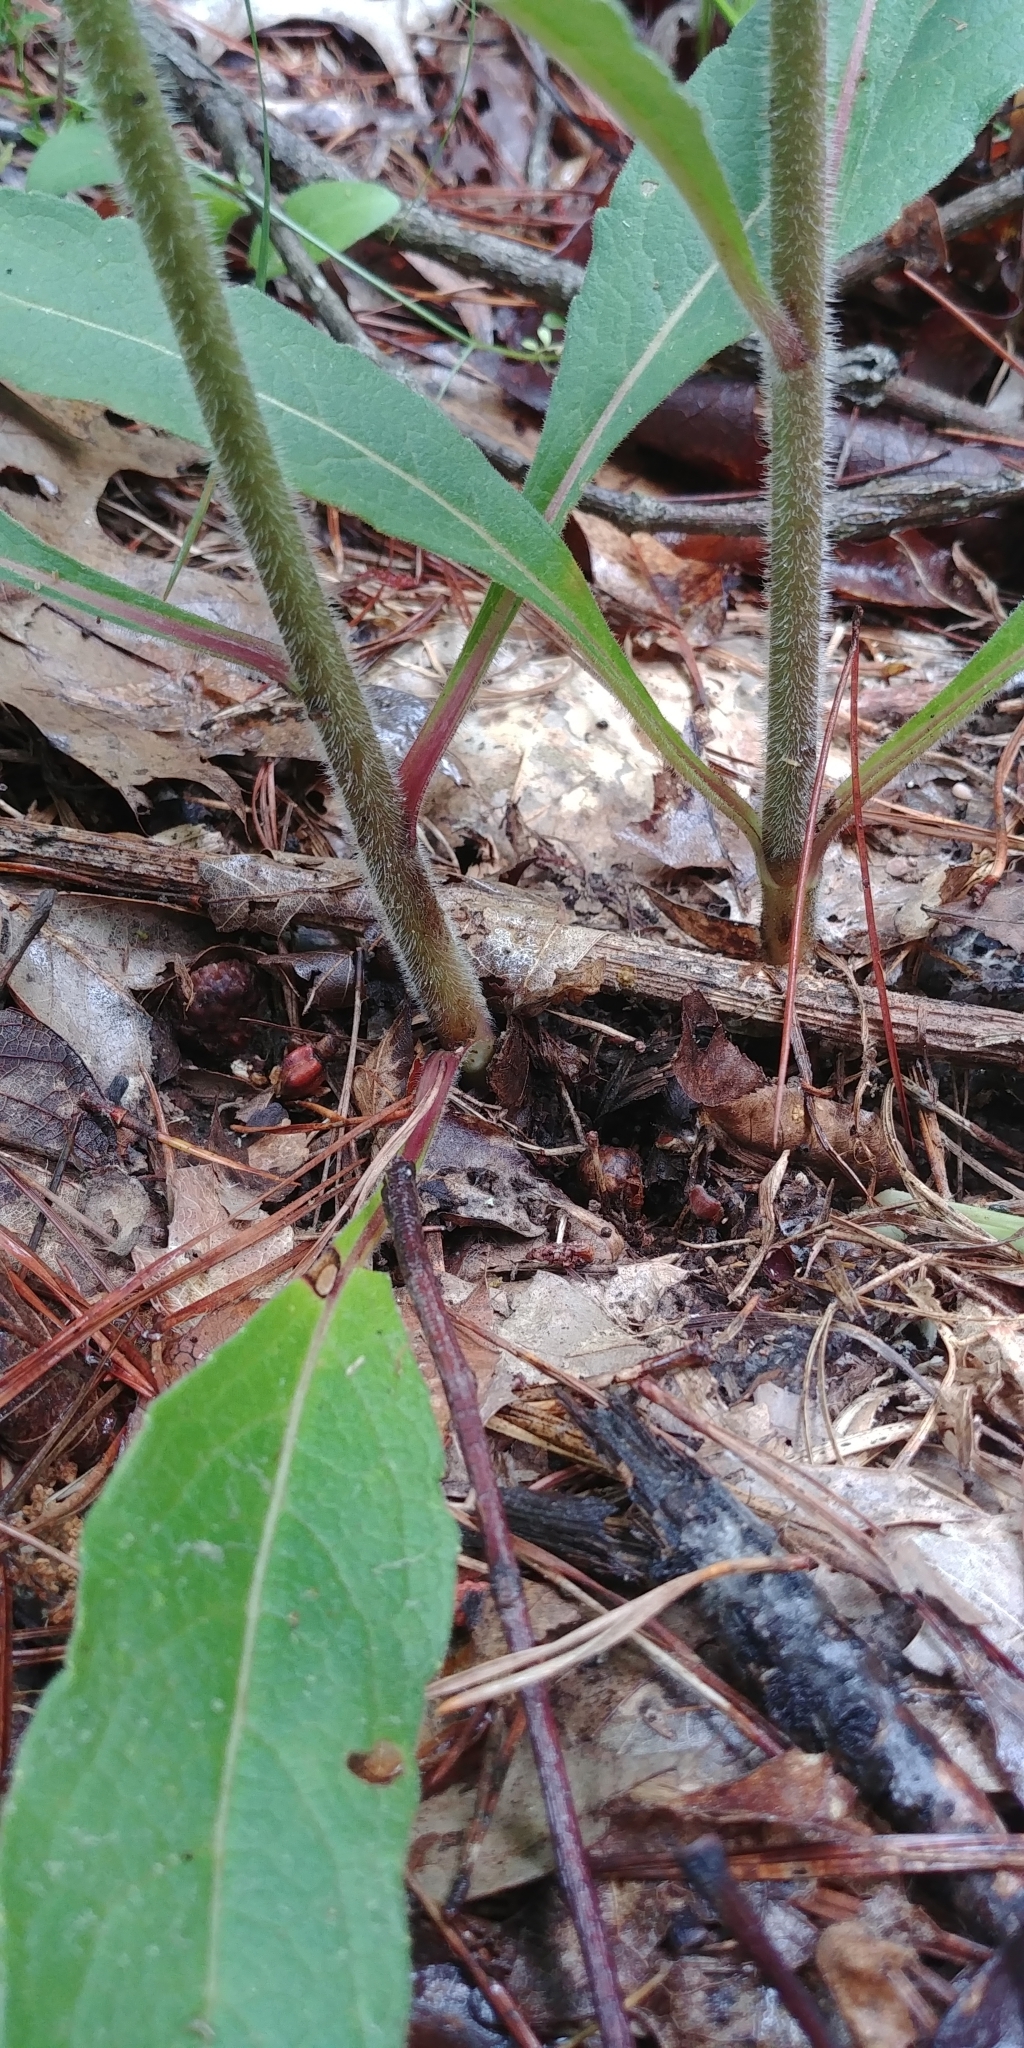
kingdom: Plantae
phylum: Tracheophyta
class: Magnoliopsida
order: Asterales
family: Asteraceae
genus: Silphium
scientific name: Silphium asteriscus
